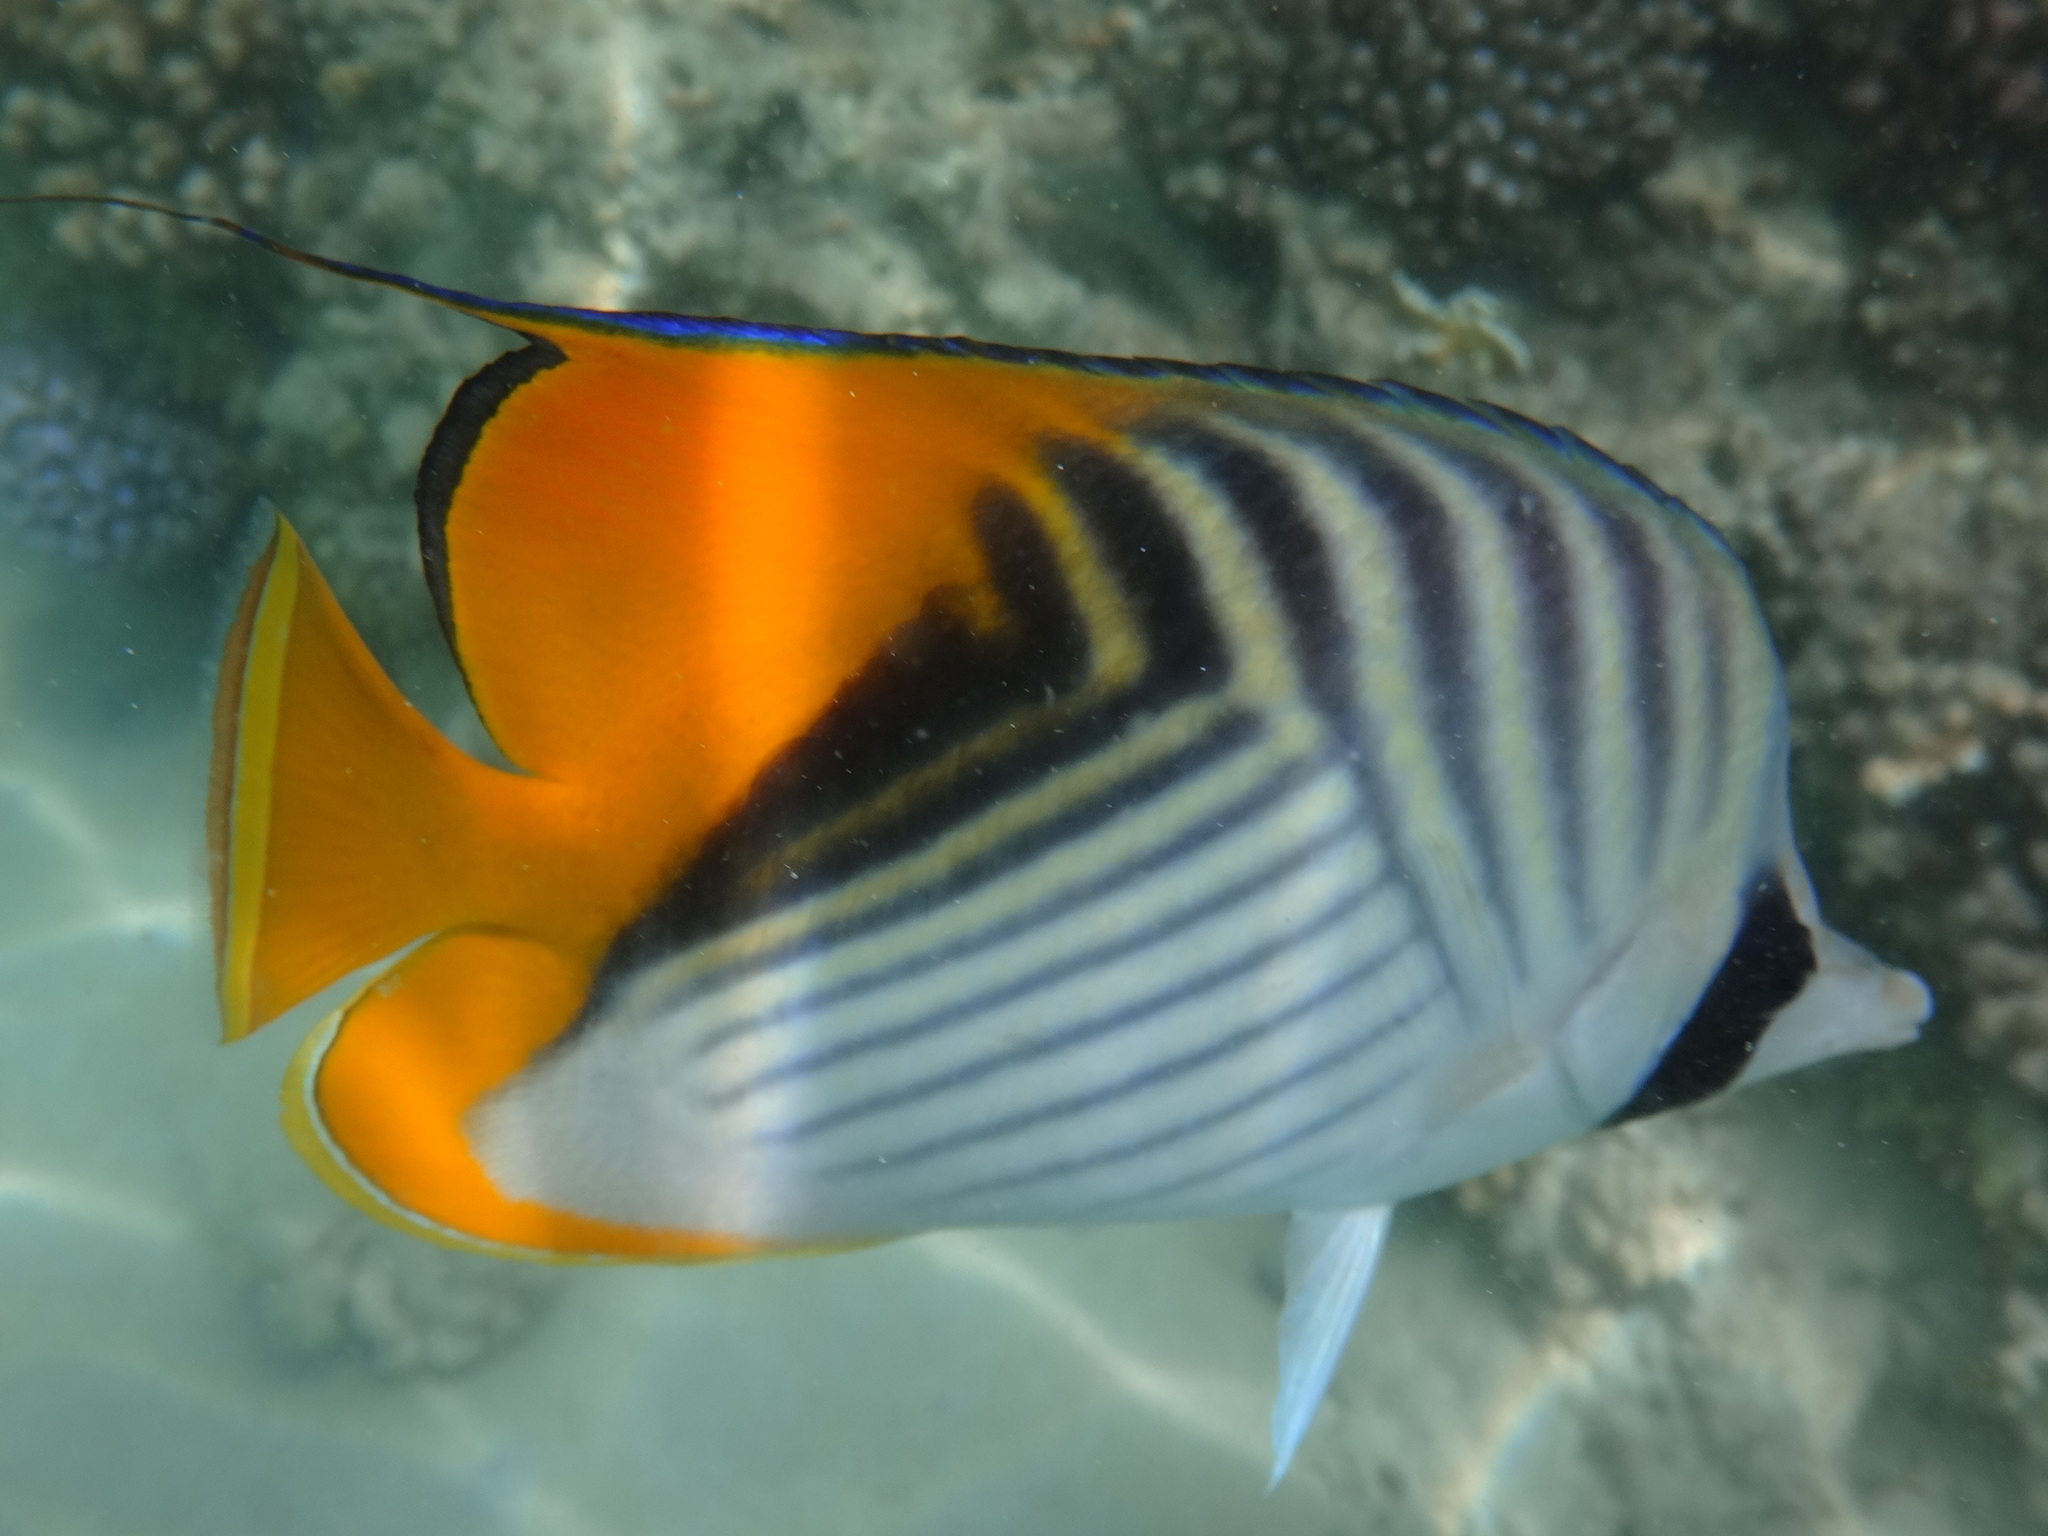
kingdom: Animalia
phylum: Chordata
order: Perciformes
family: Chaetodontidae
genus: Chaetodon
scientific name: Chaetodon auriga
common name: Threadfin butterflyfish
